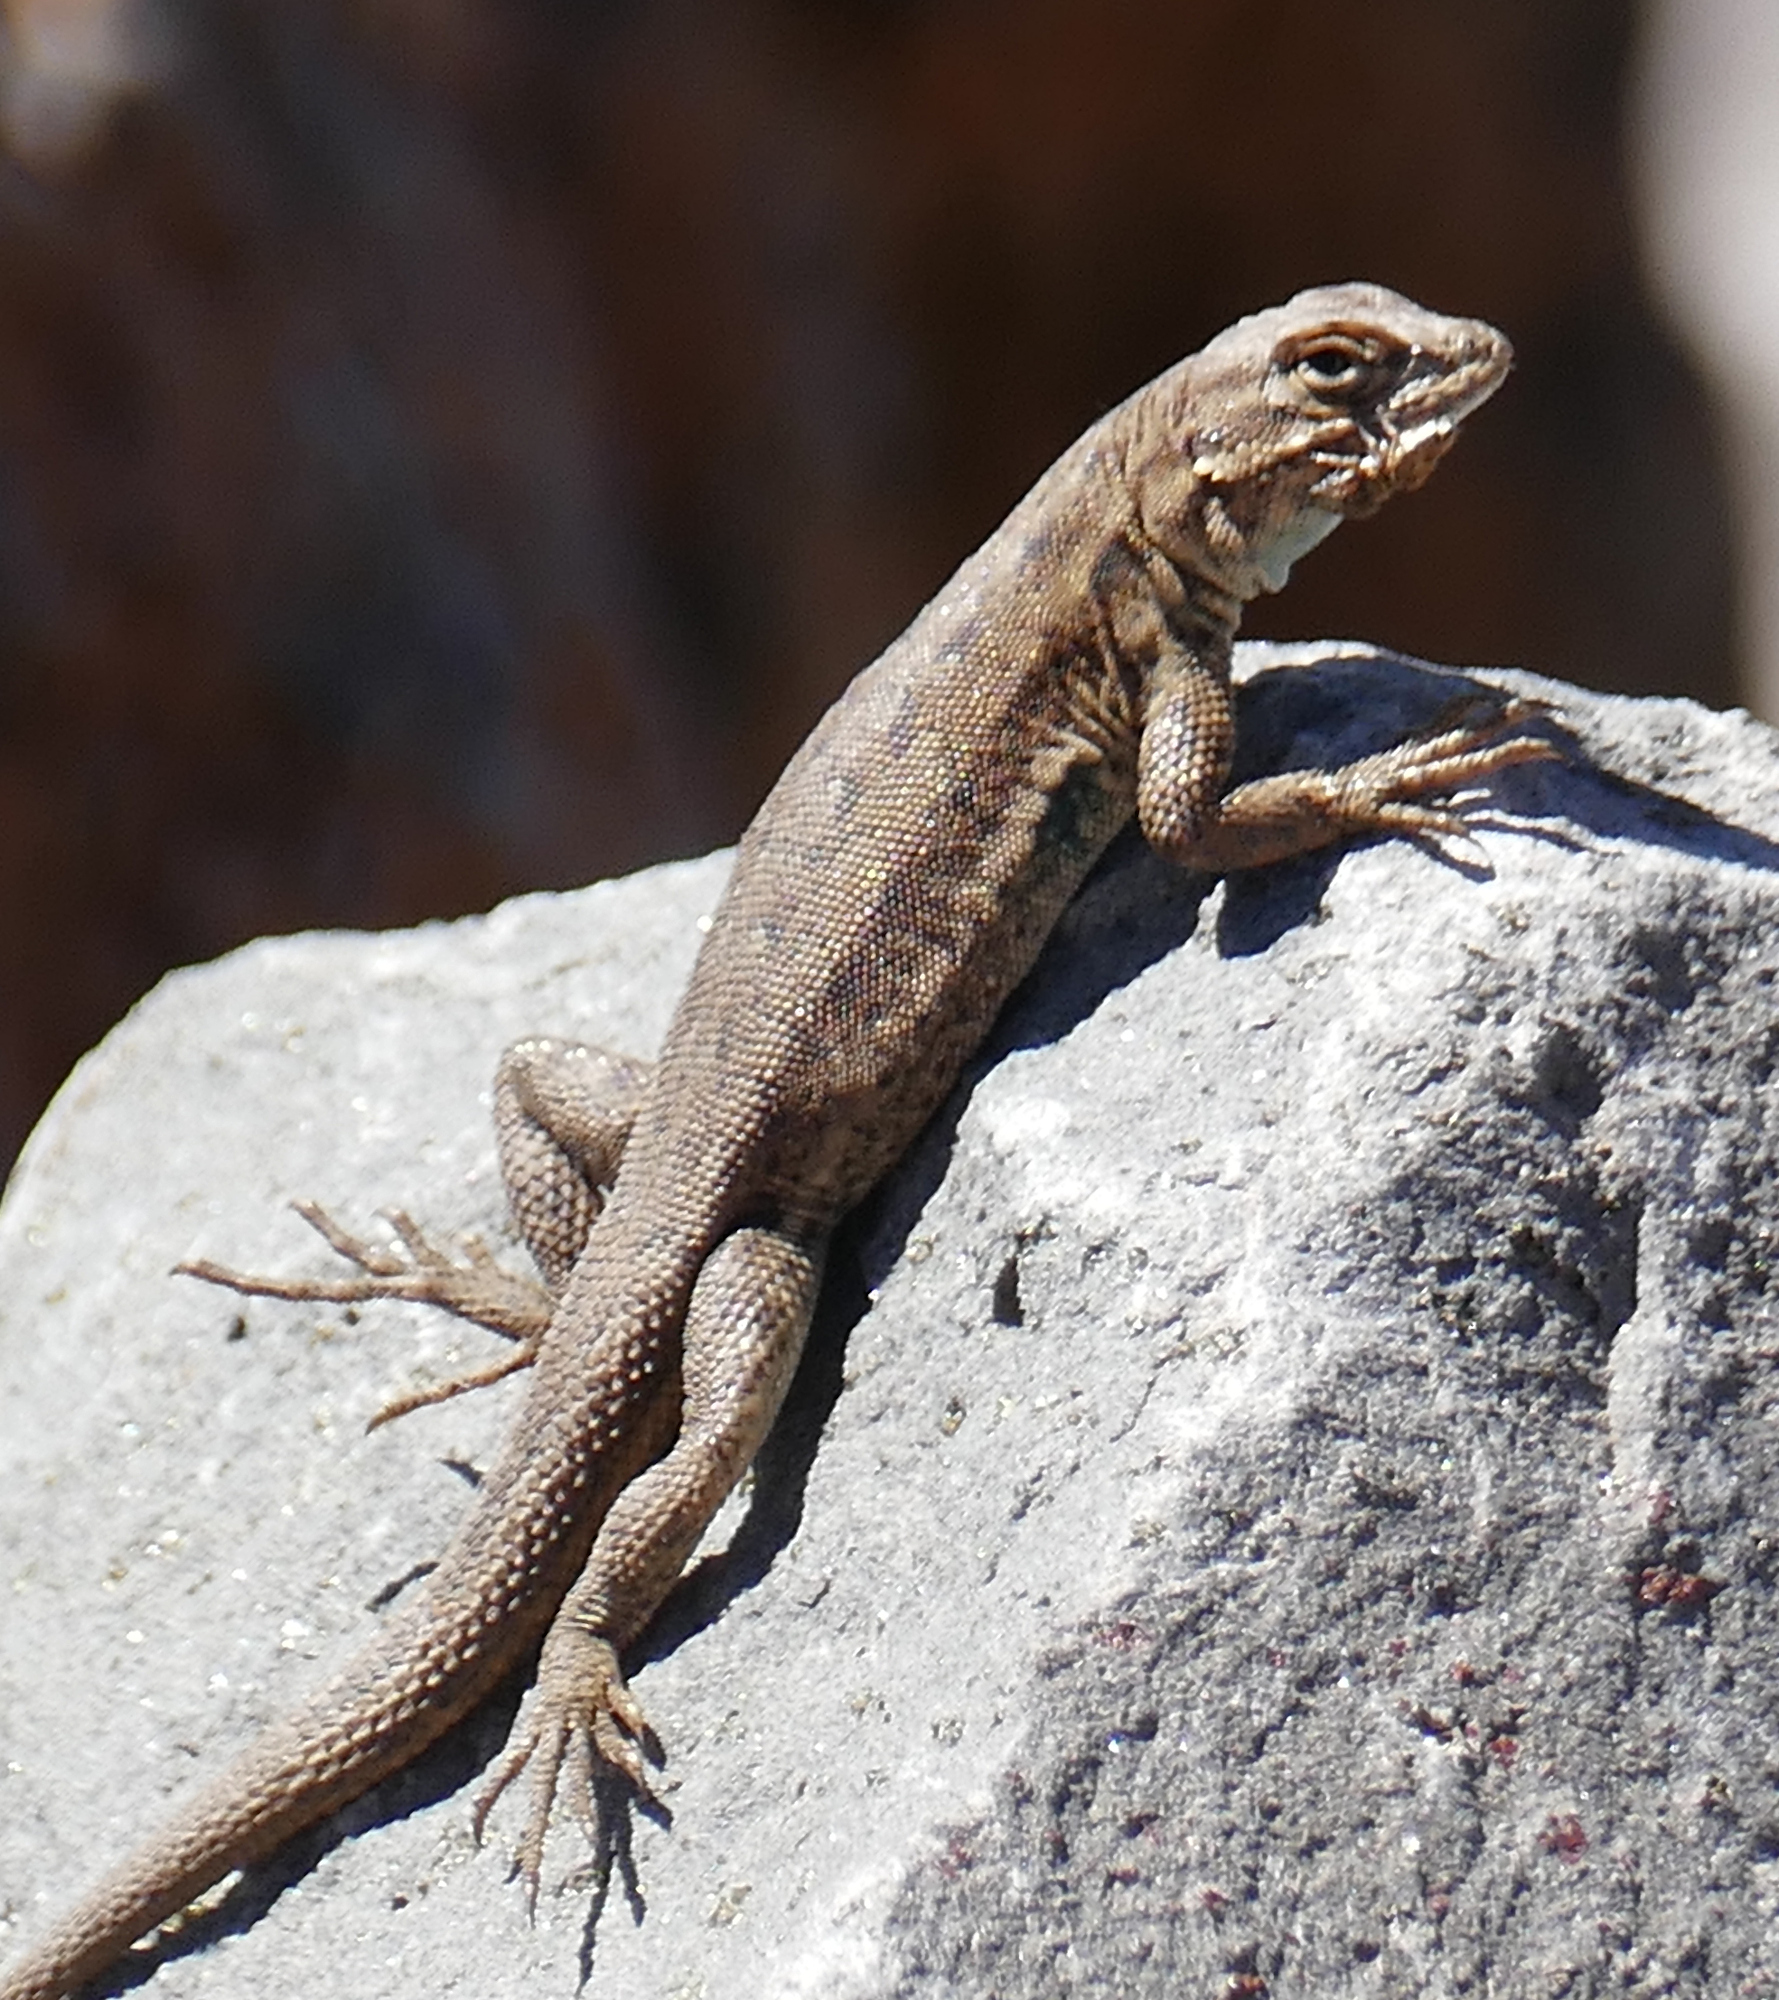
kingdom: Animalia
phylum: Chordata
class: Squamata
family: Phrynosomatidae
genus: Uta
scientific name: Uta stansburiana
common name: Side-blotched lizard
